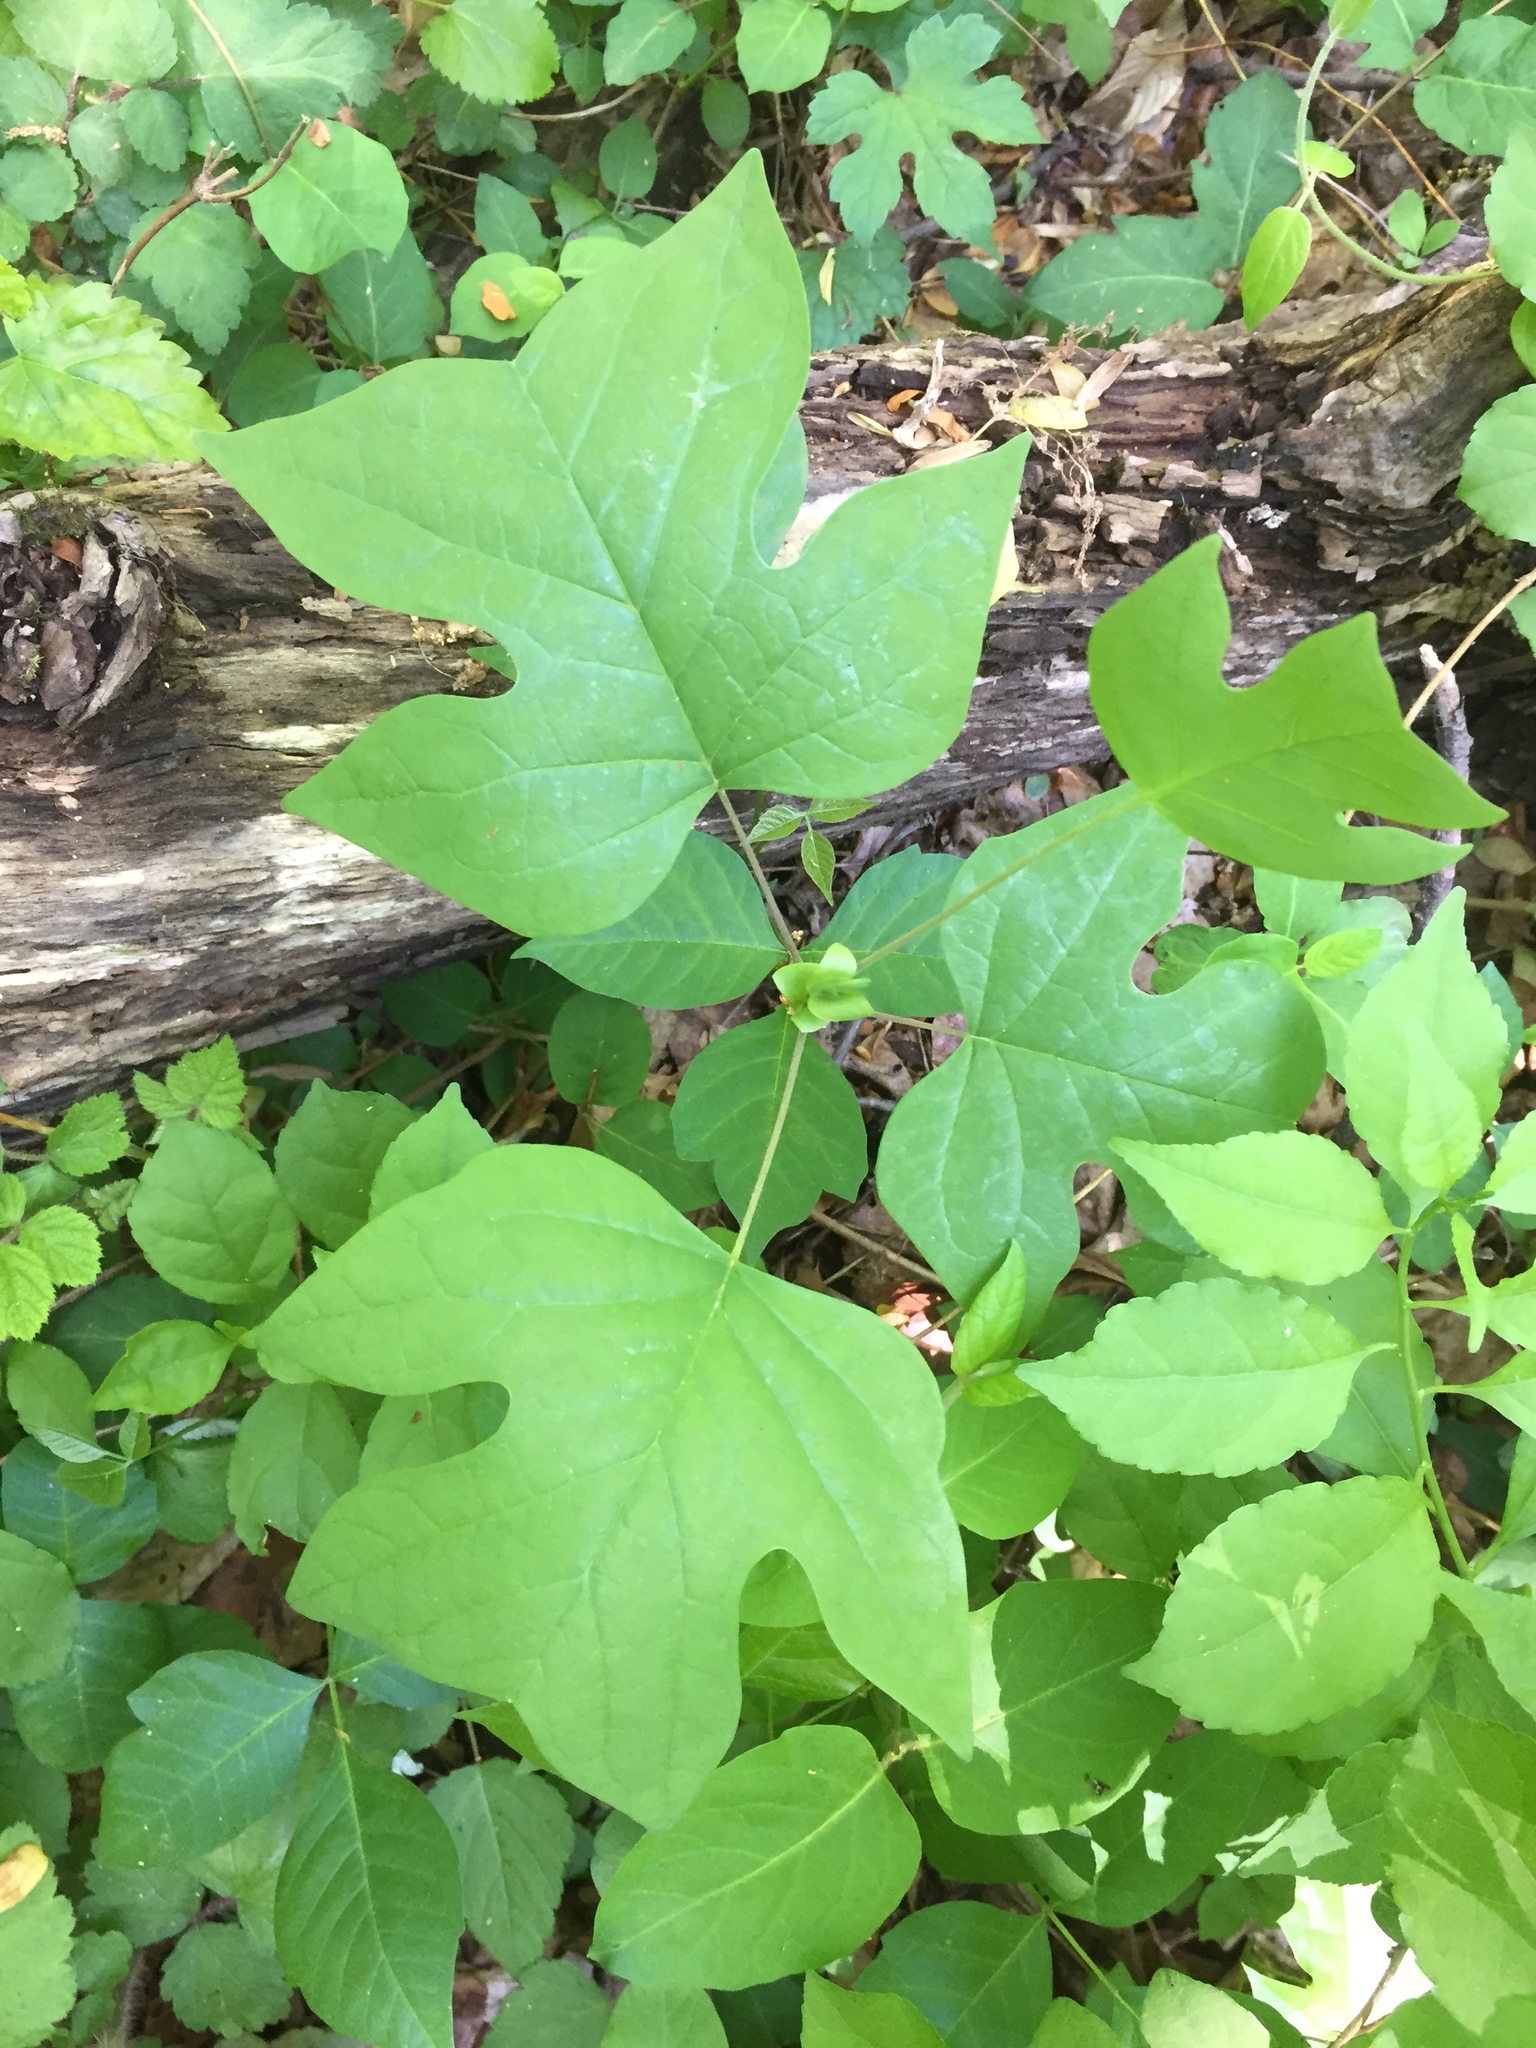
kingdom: Plantae
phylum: Tracheophyta
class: Magnoliopsida
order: Magnoliales
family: Magnoliaceae
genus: Liriodendron
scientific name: Liriodendron tulipifera
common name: Tulip tree
